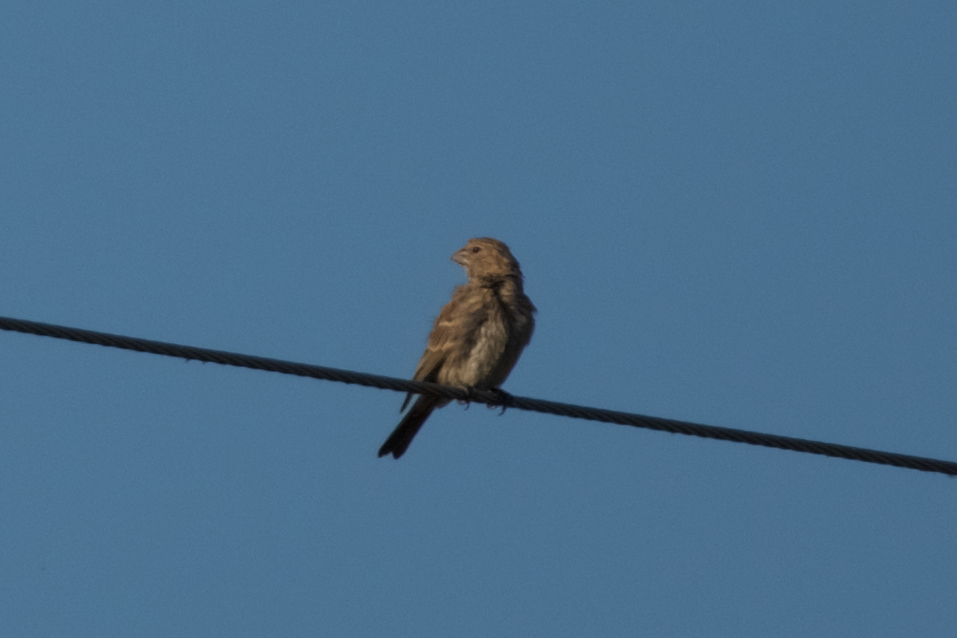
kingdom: Animalia
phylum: Chordata
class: Aves
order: Passeriformes
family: Fringillidae
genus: Haemorhous
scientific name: Haemorhous mexicanus
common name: House finch
